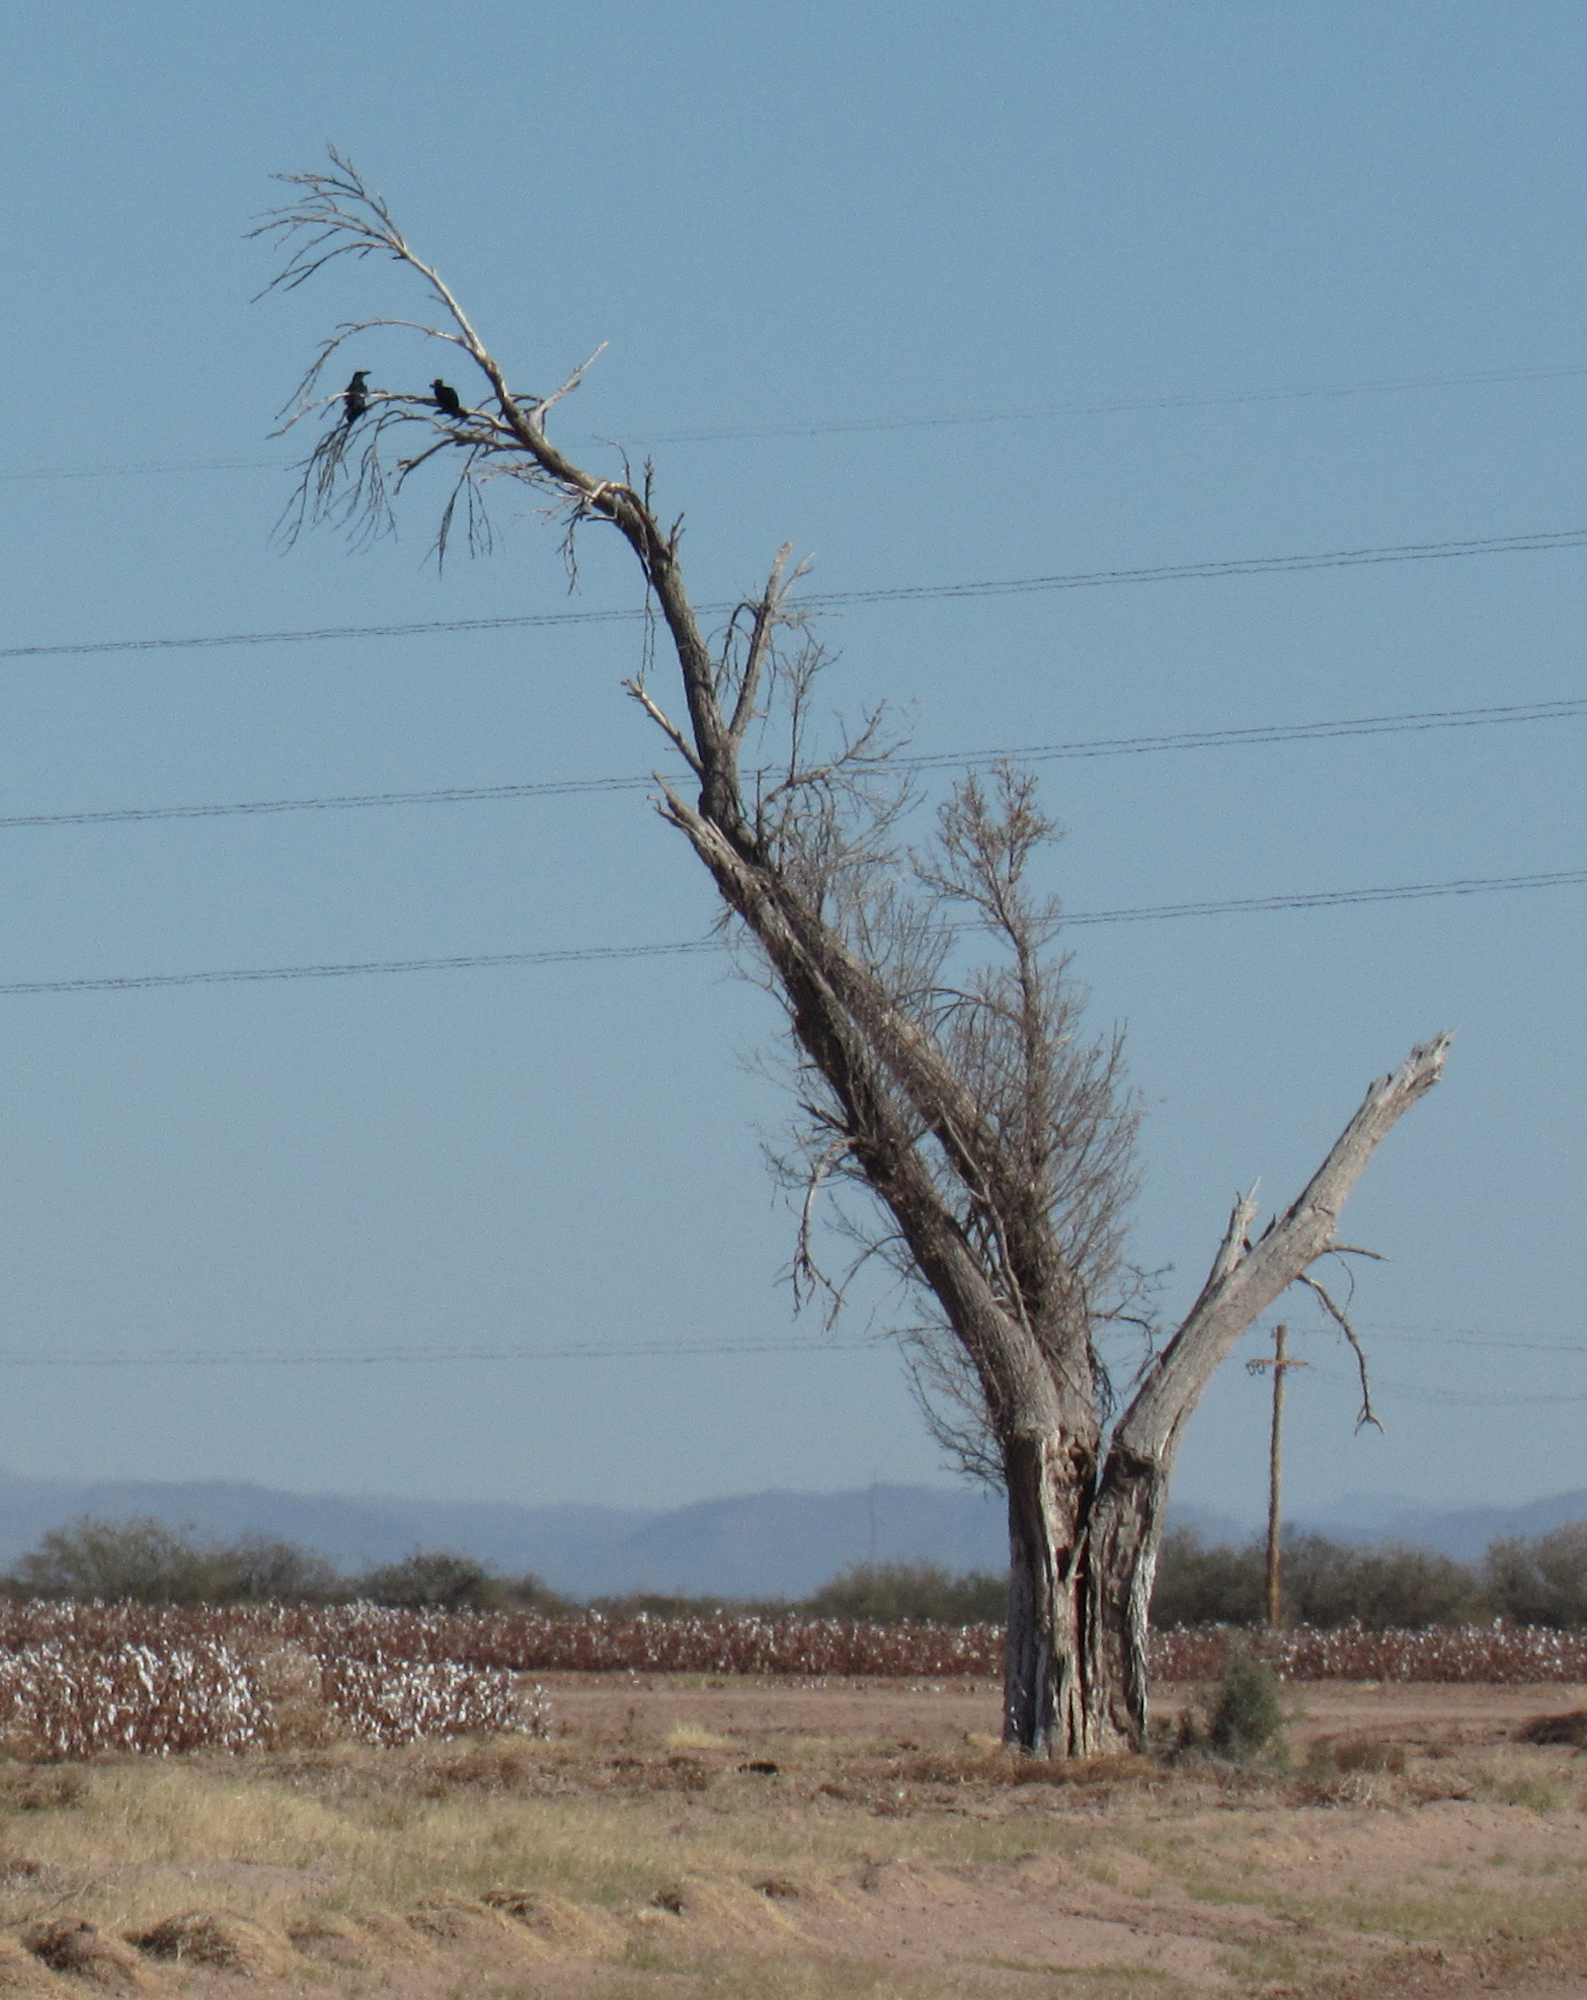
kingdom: Animalia
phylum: Chordata
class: Aves
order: Passeriformes
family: Corvidae
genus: Corvus
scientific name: Corvus corax
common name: Common raven
